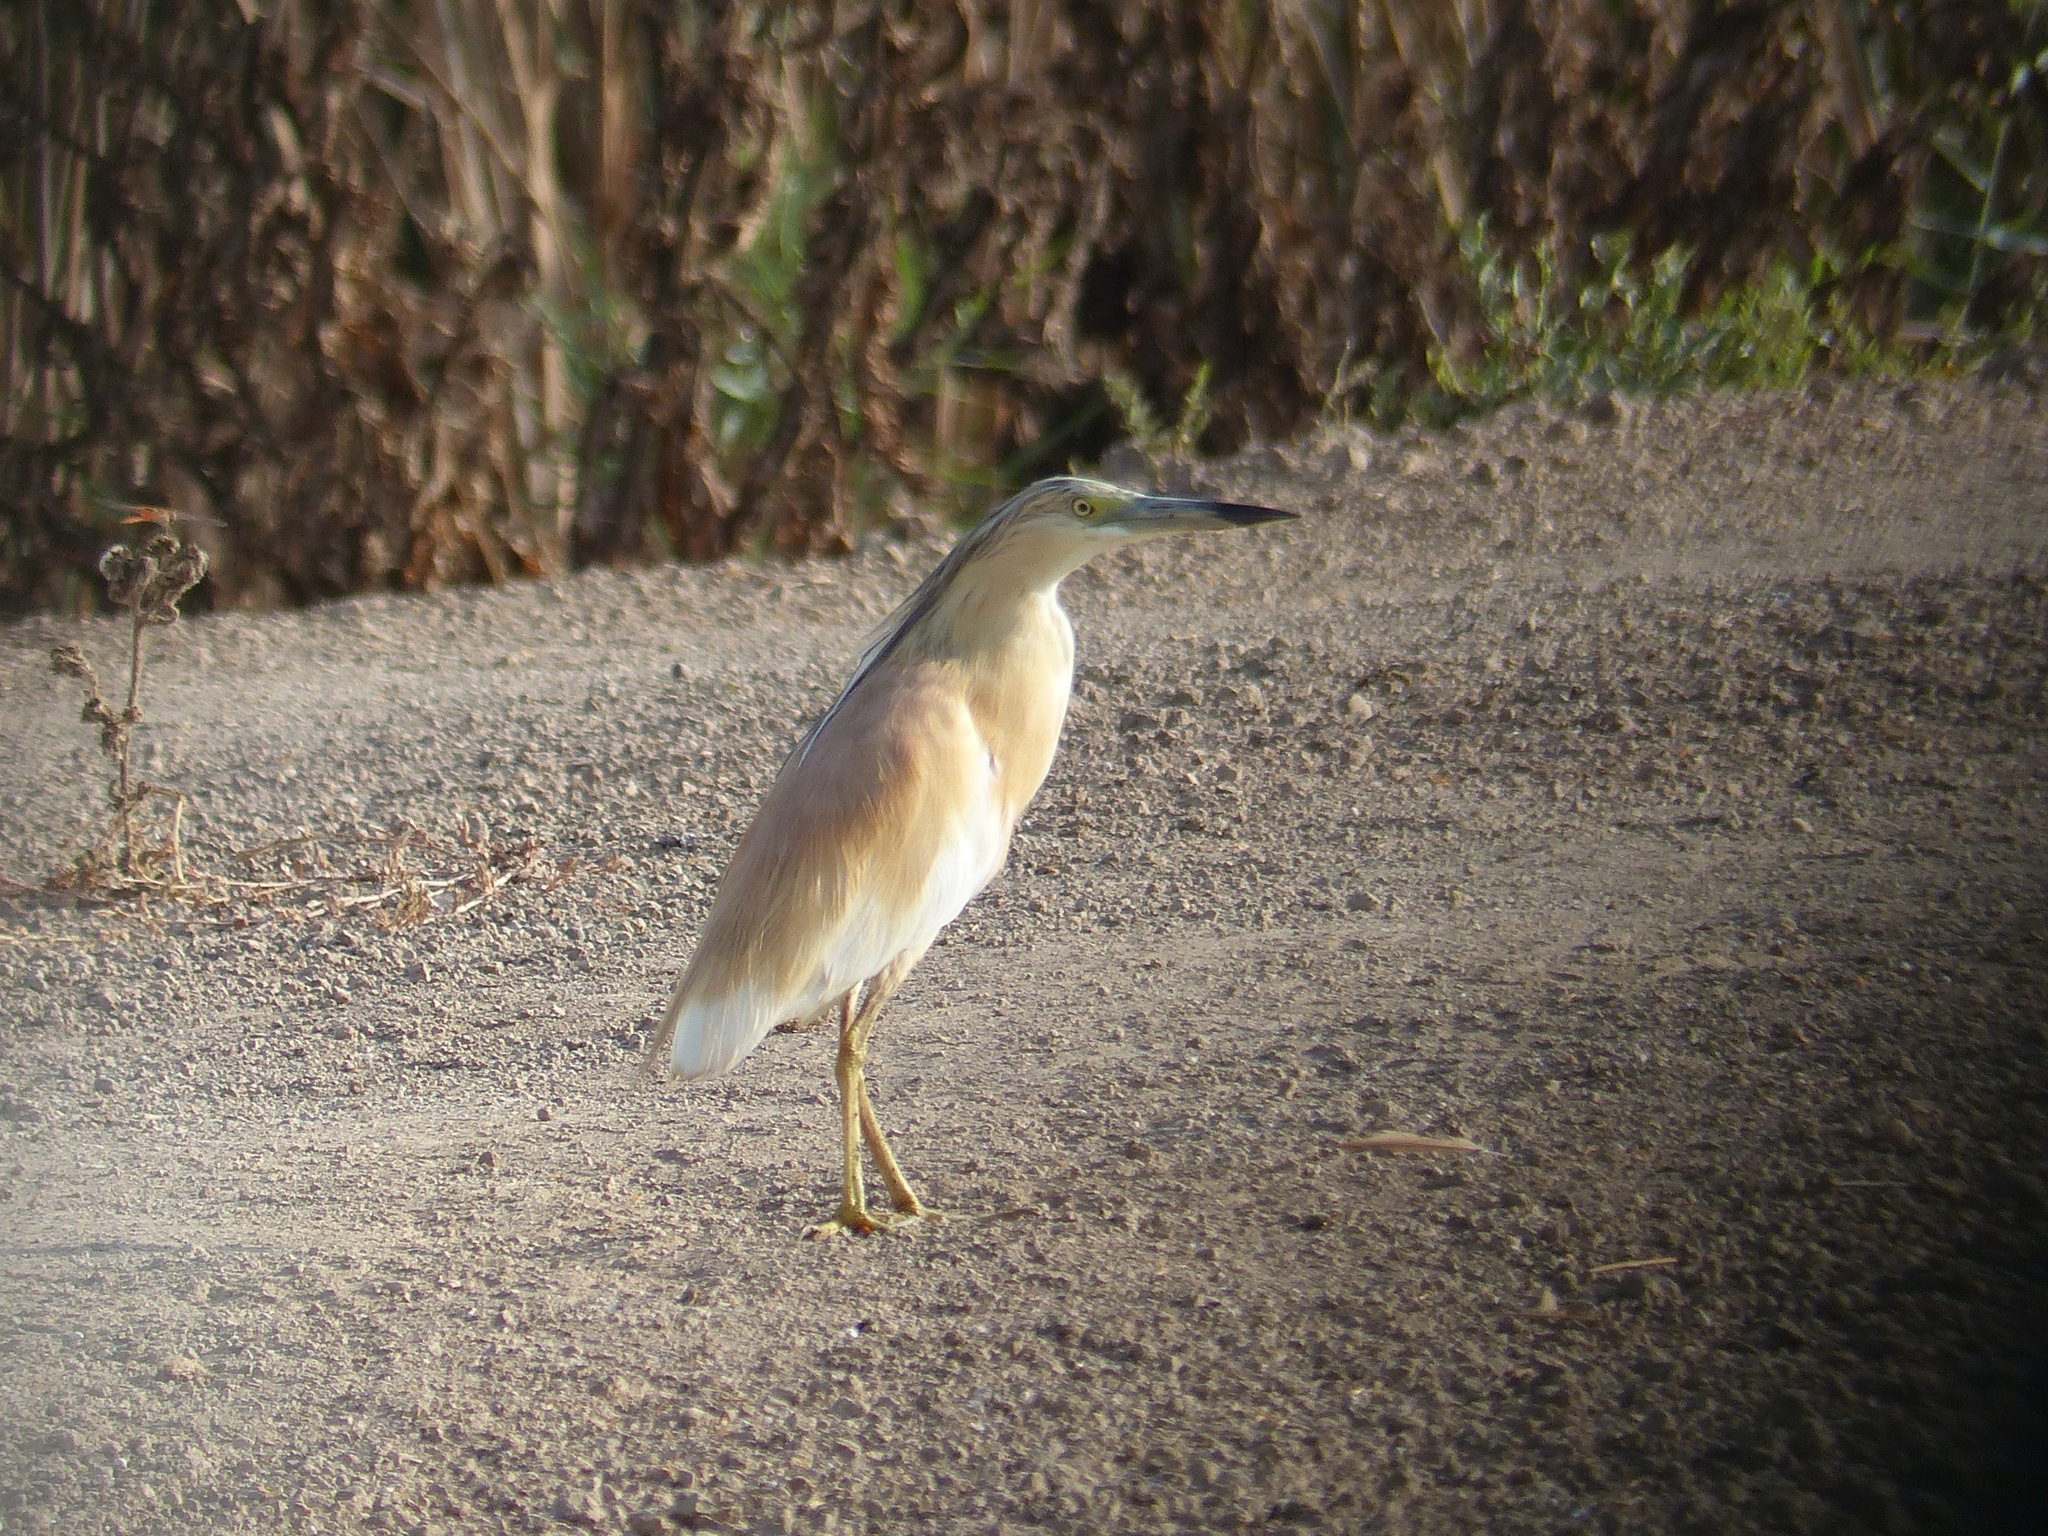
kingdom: Animalia
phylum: Chordata
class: Aves
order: Pelecaniformes
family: Ardeidae
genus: Ardeola
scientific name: Ardeola ralloides
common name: Squacco heron
